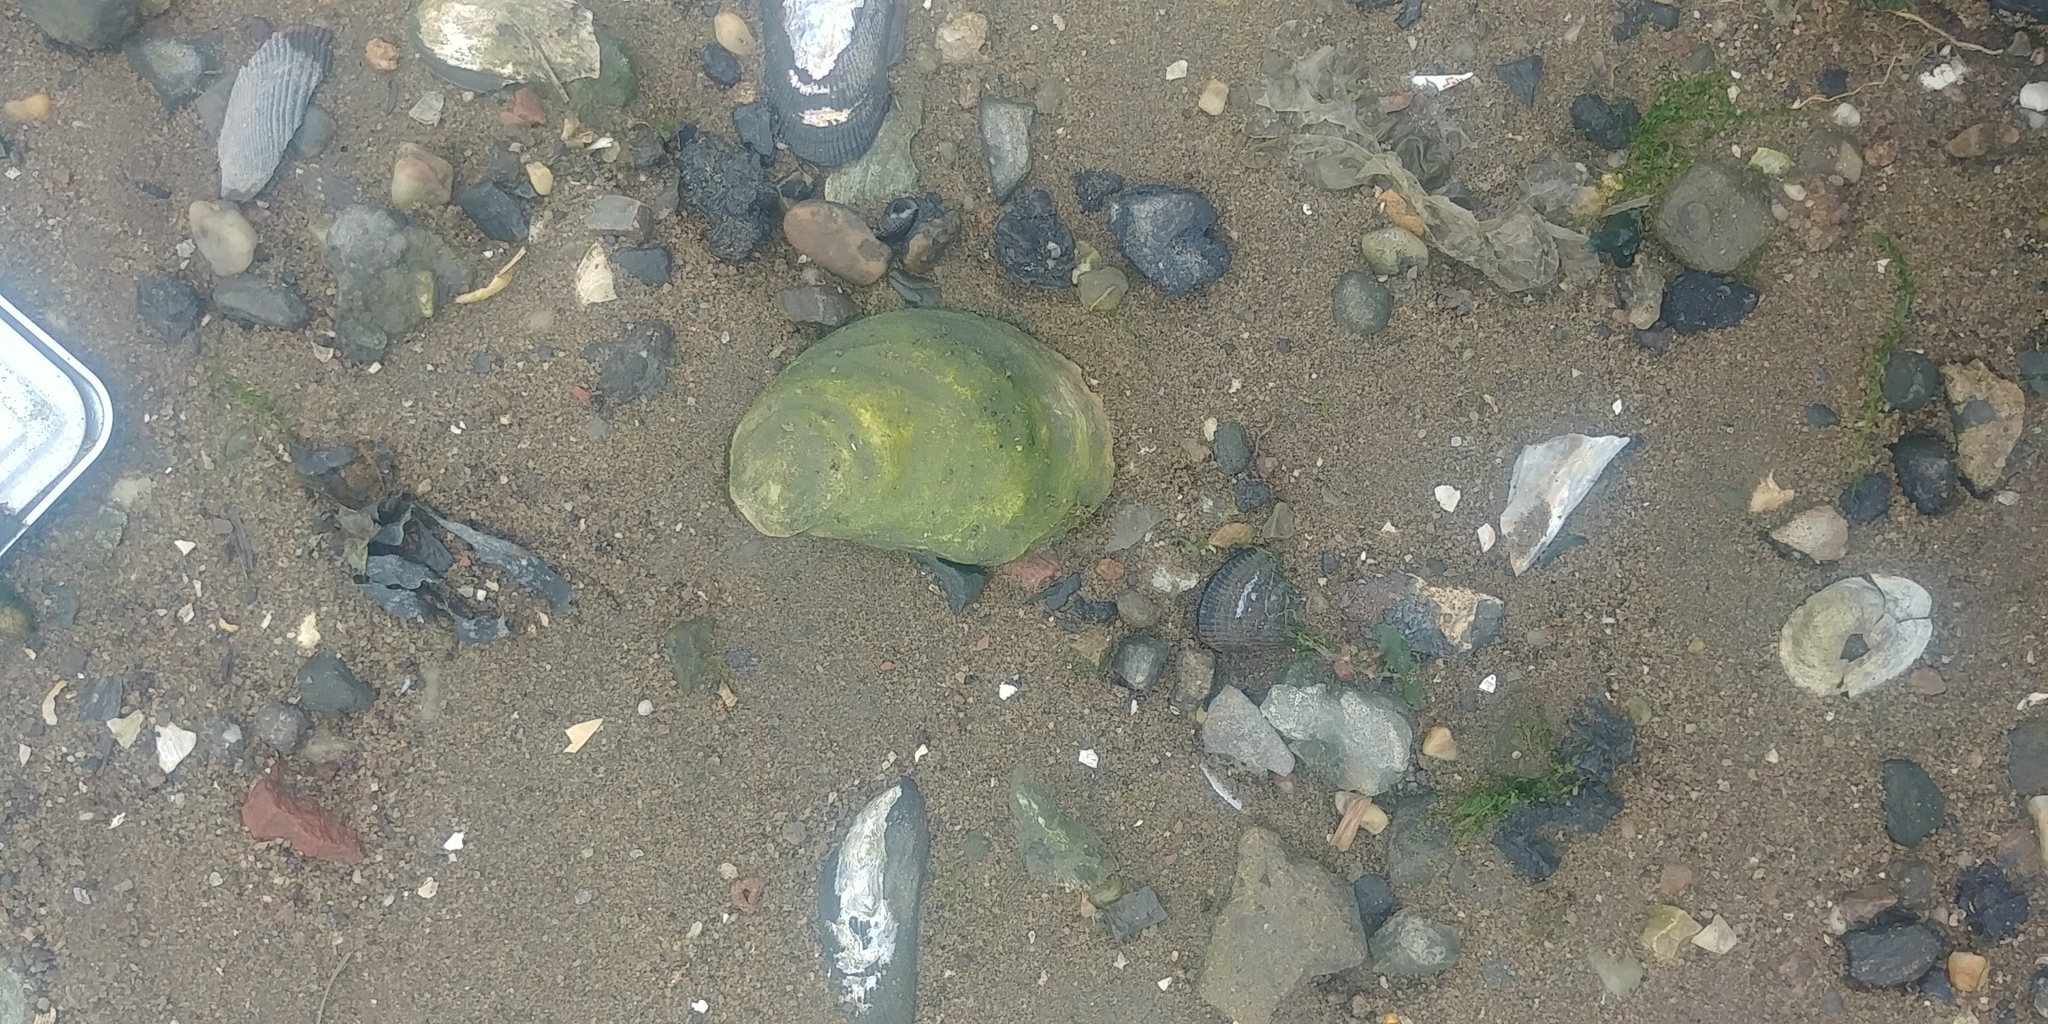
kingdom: Animalia
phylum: Mollusca
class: Bivalvia
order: Ostreida
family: Ostreidae
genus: Crassostrea
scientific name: Crassostrea virginica
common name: American oyster
